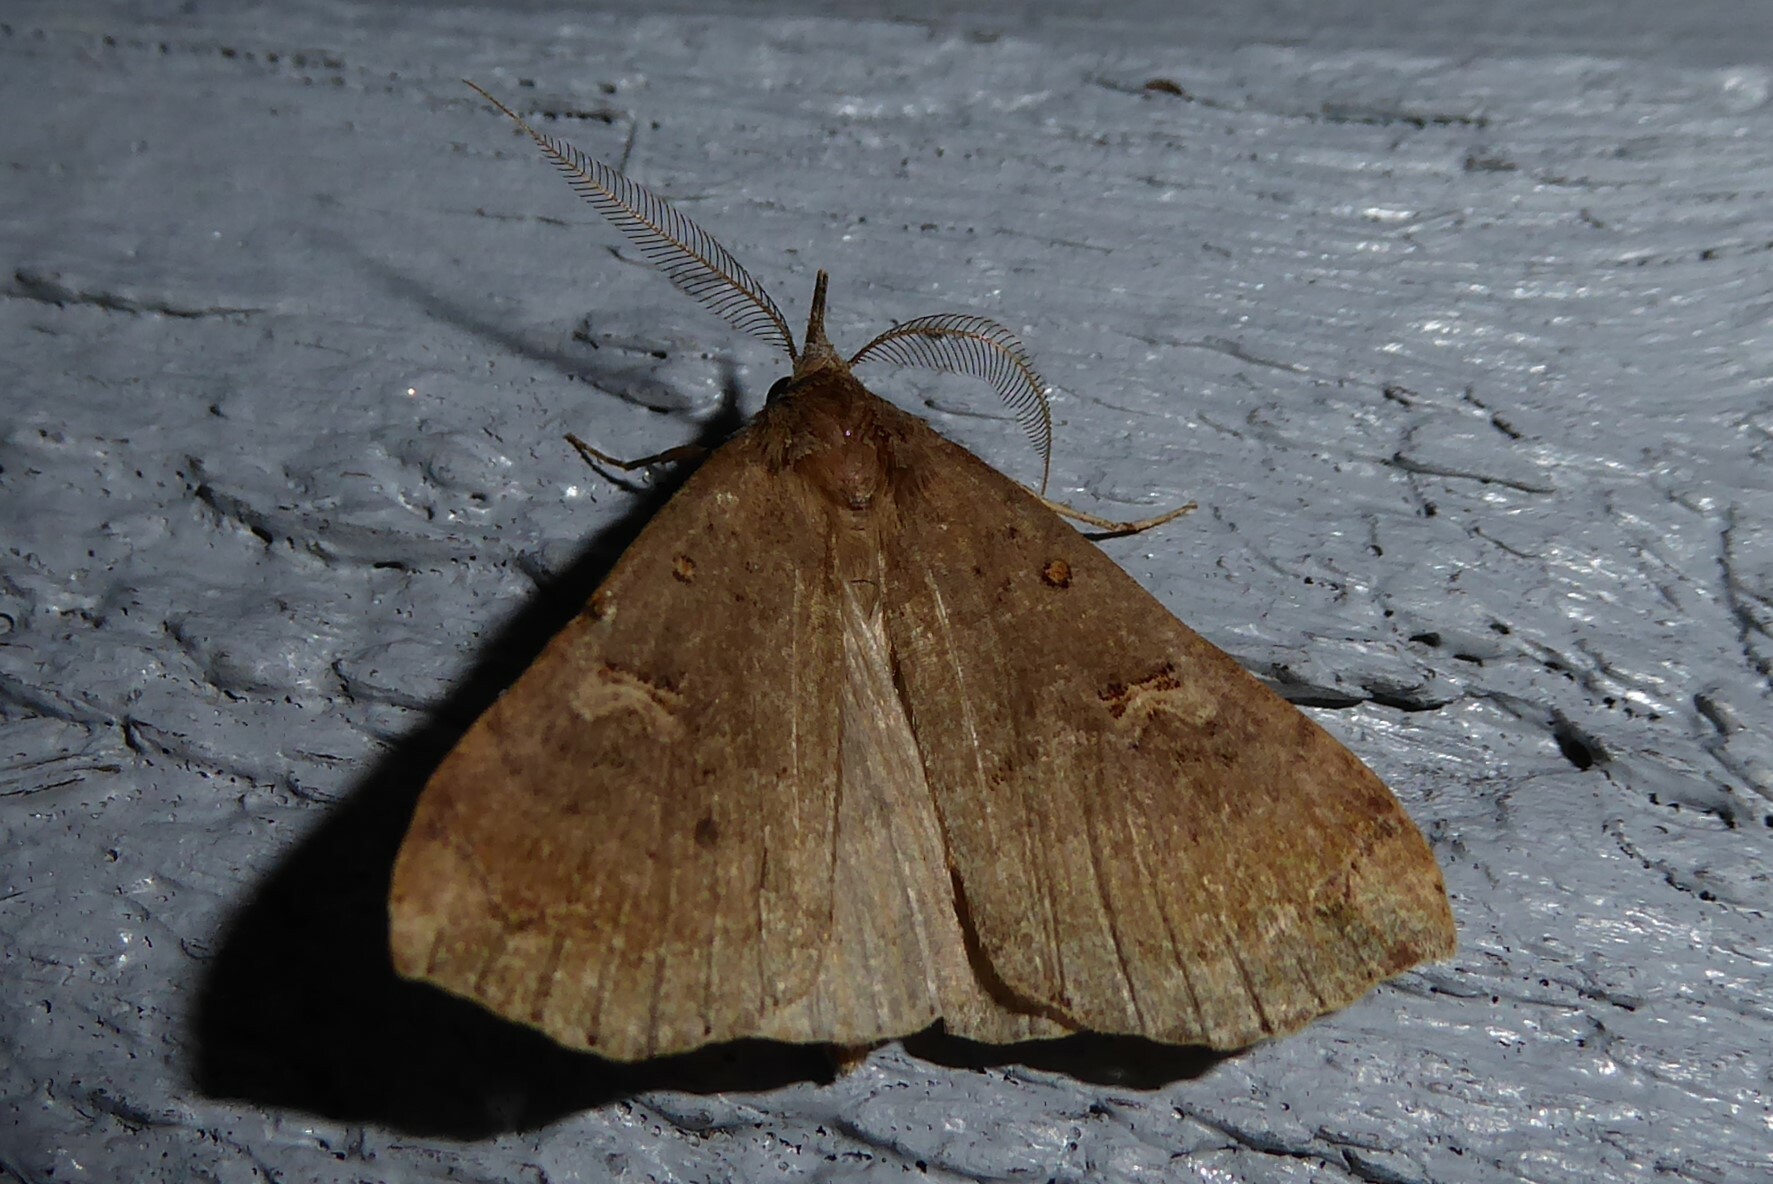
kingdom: Animalia
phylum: Arthropoda
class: Insecta
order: Lepidoptera
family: Erebidae
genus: Rhapsa
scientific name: Rhapsa scotosialis
